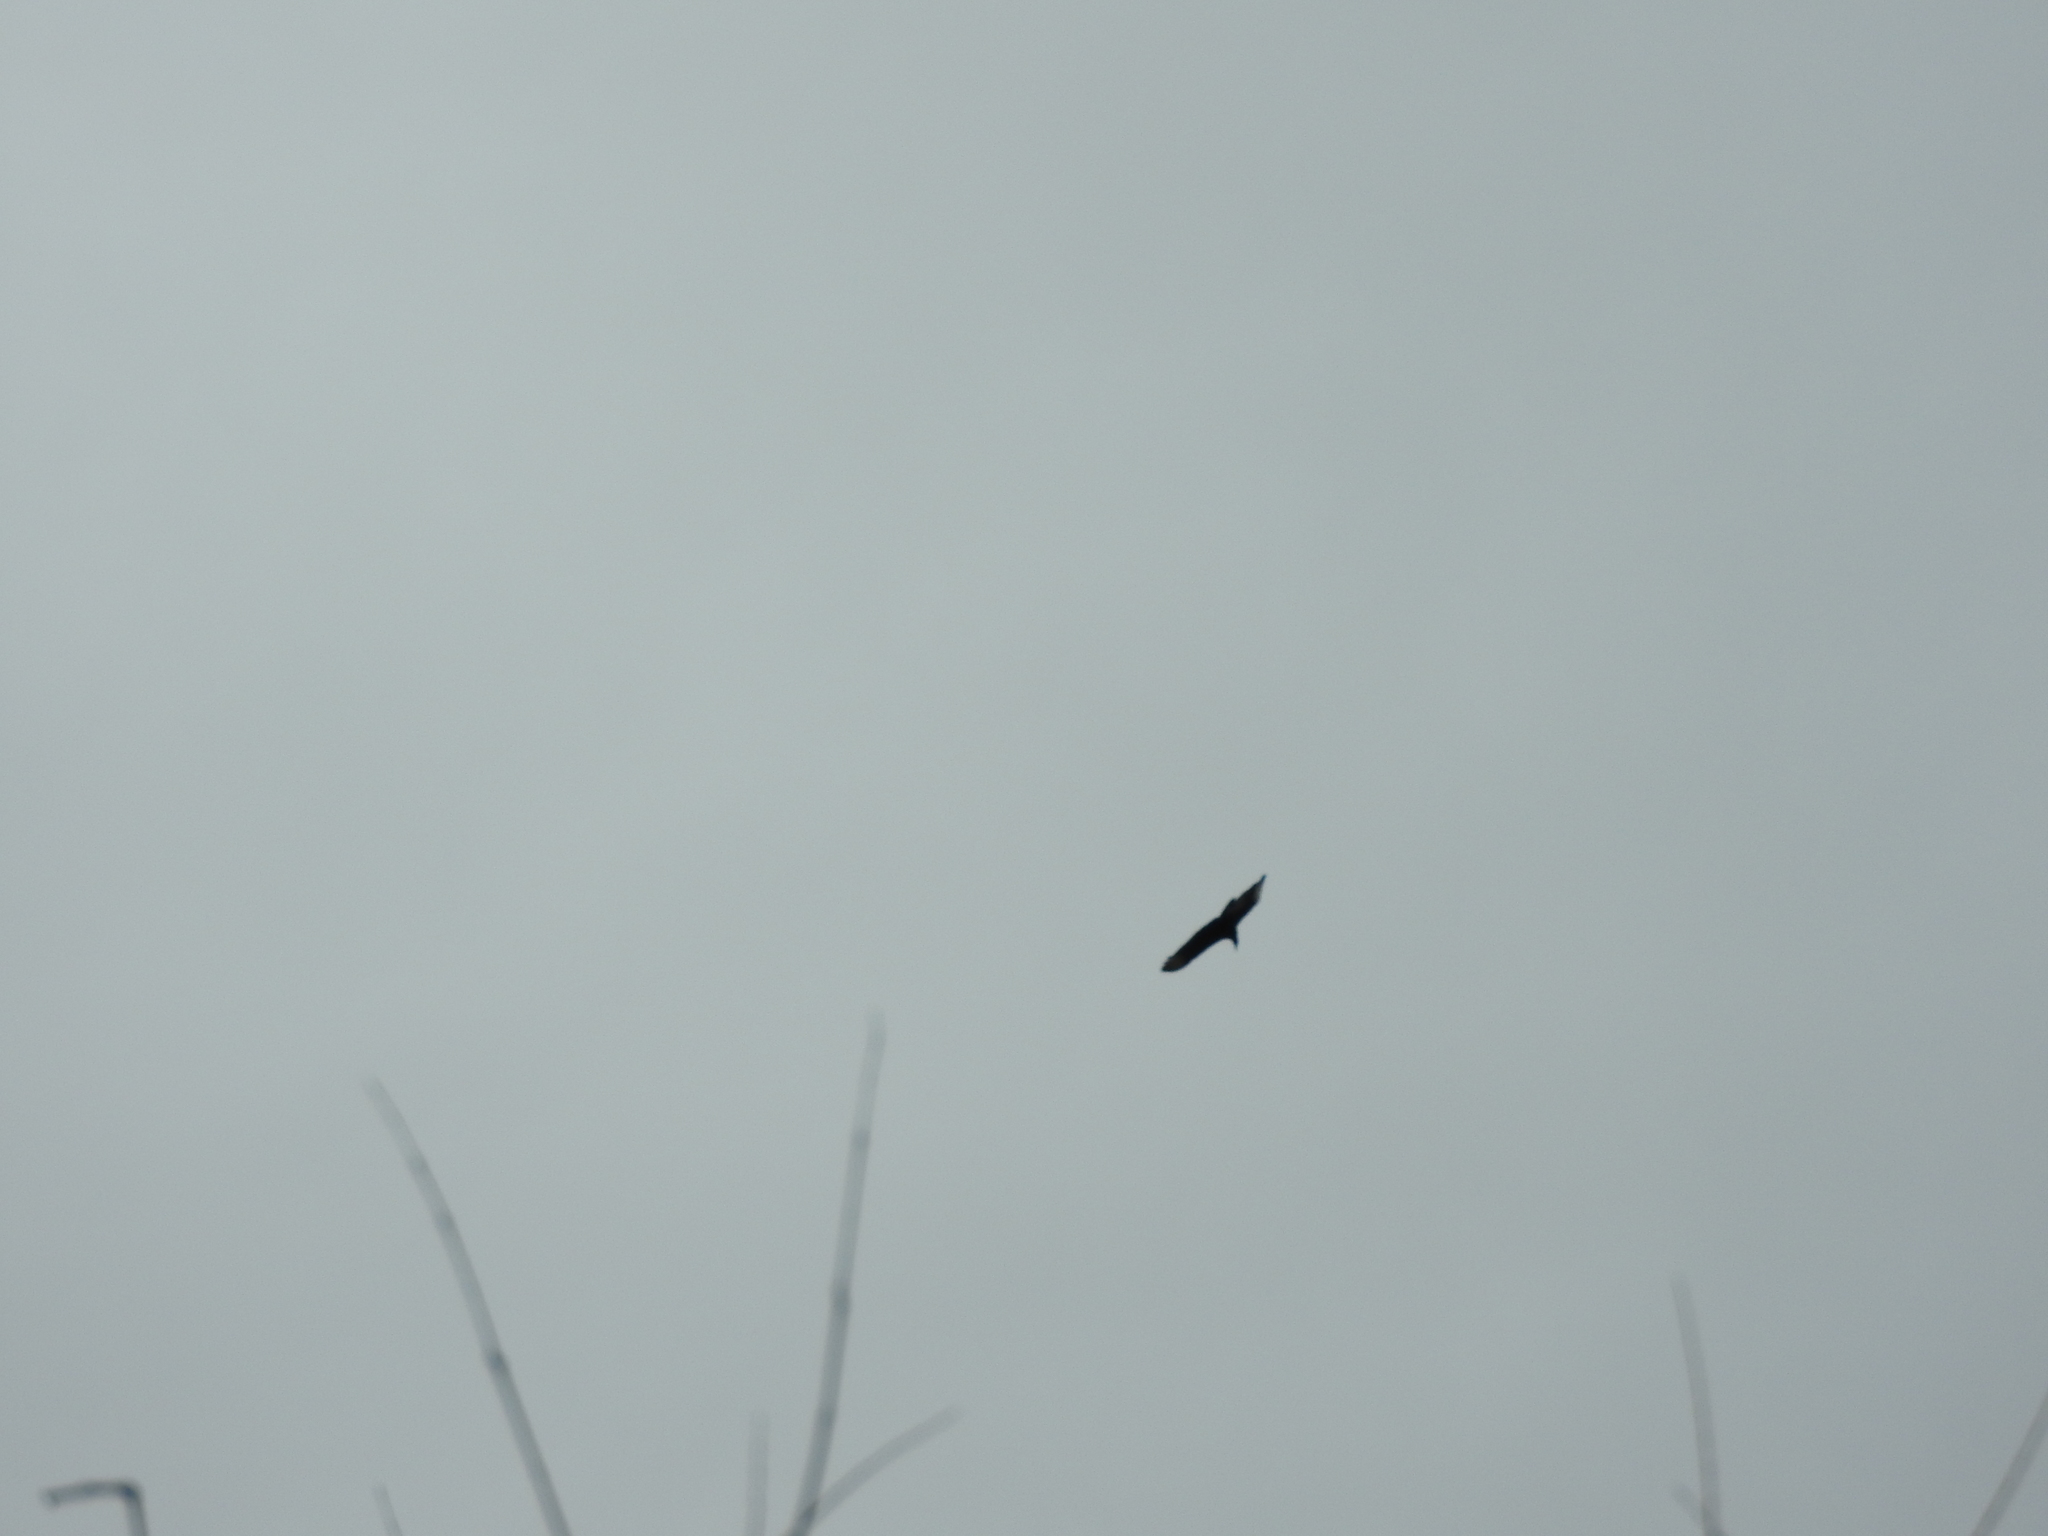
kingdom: Animalia
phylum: Chordata
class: Aves
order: Accipitriformes
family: Cathartidae
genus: Coragyps
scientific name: Coragyps atratus
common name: Black vulture
